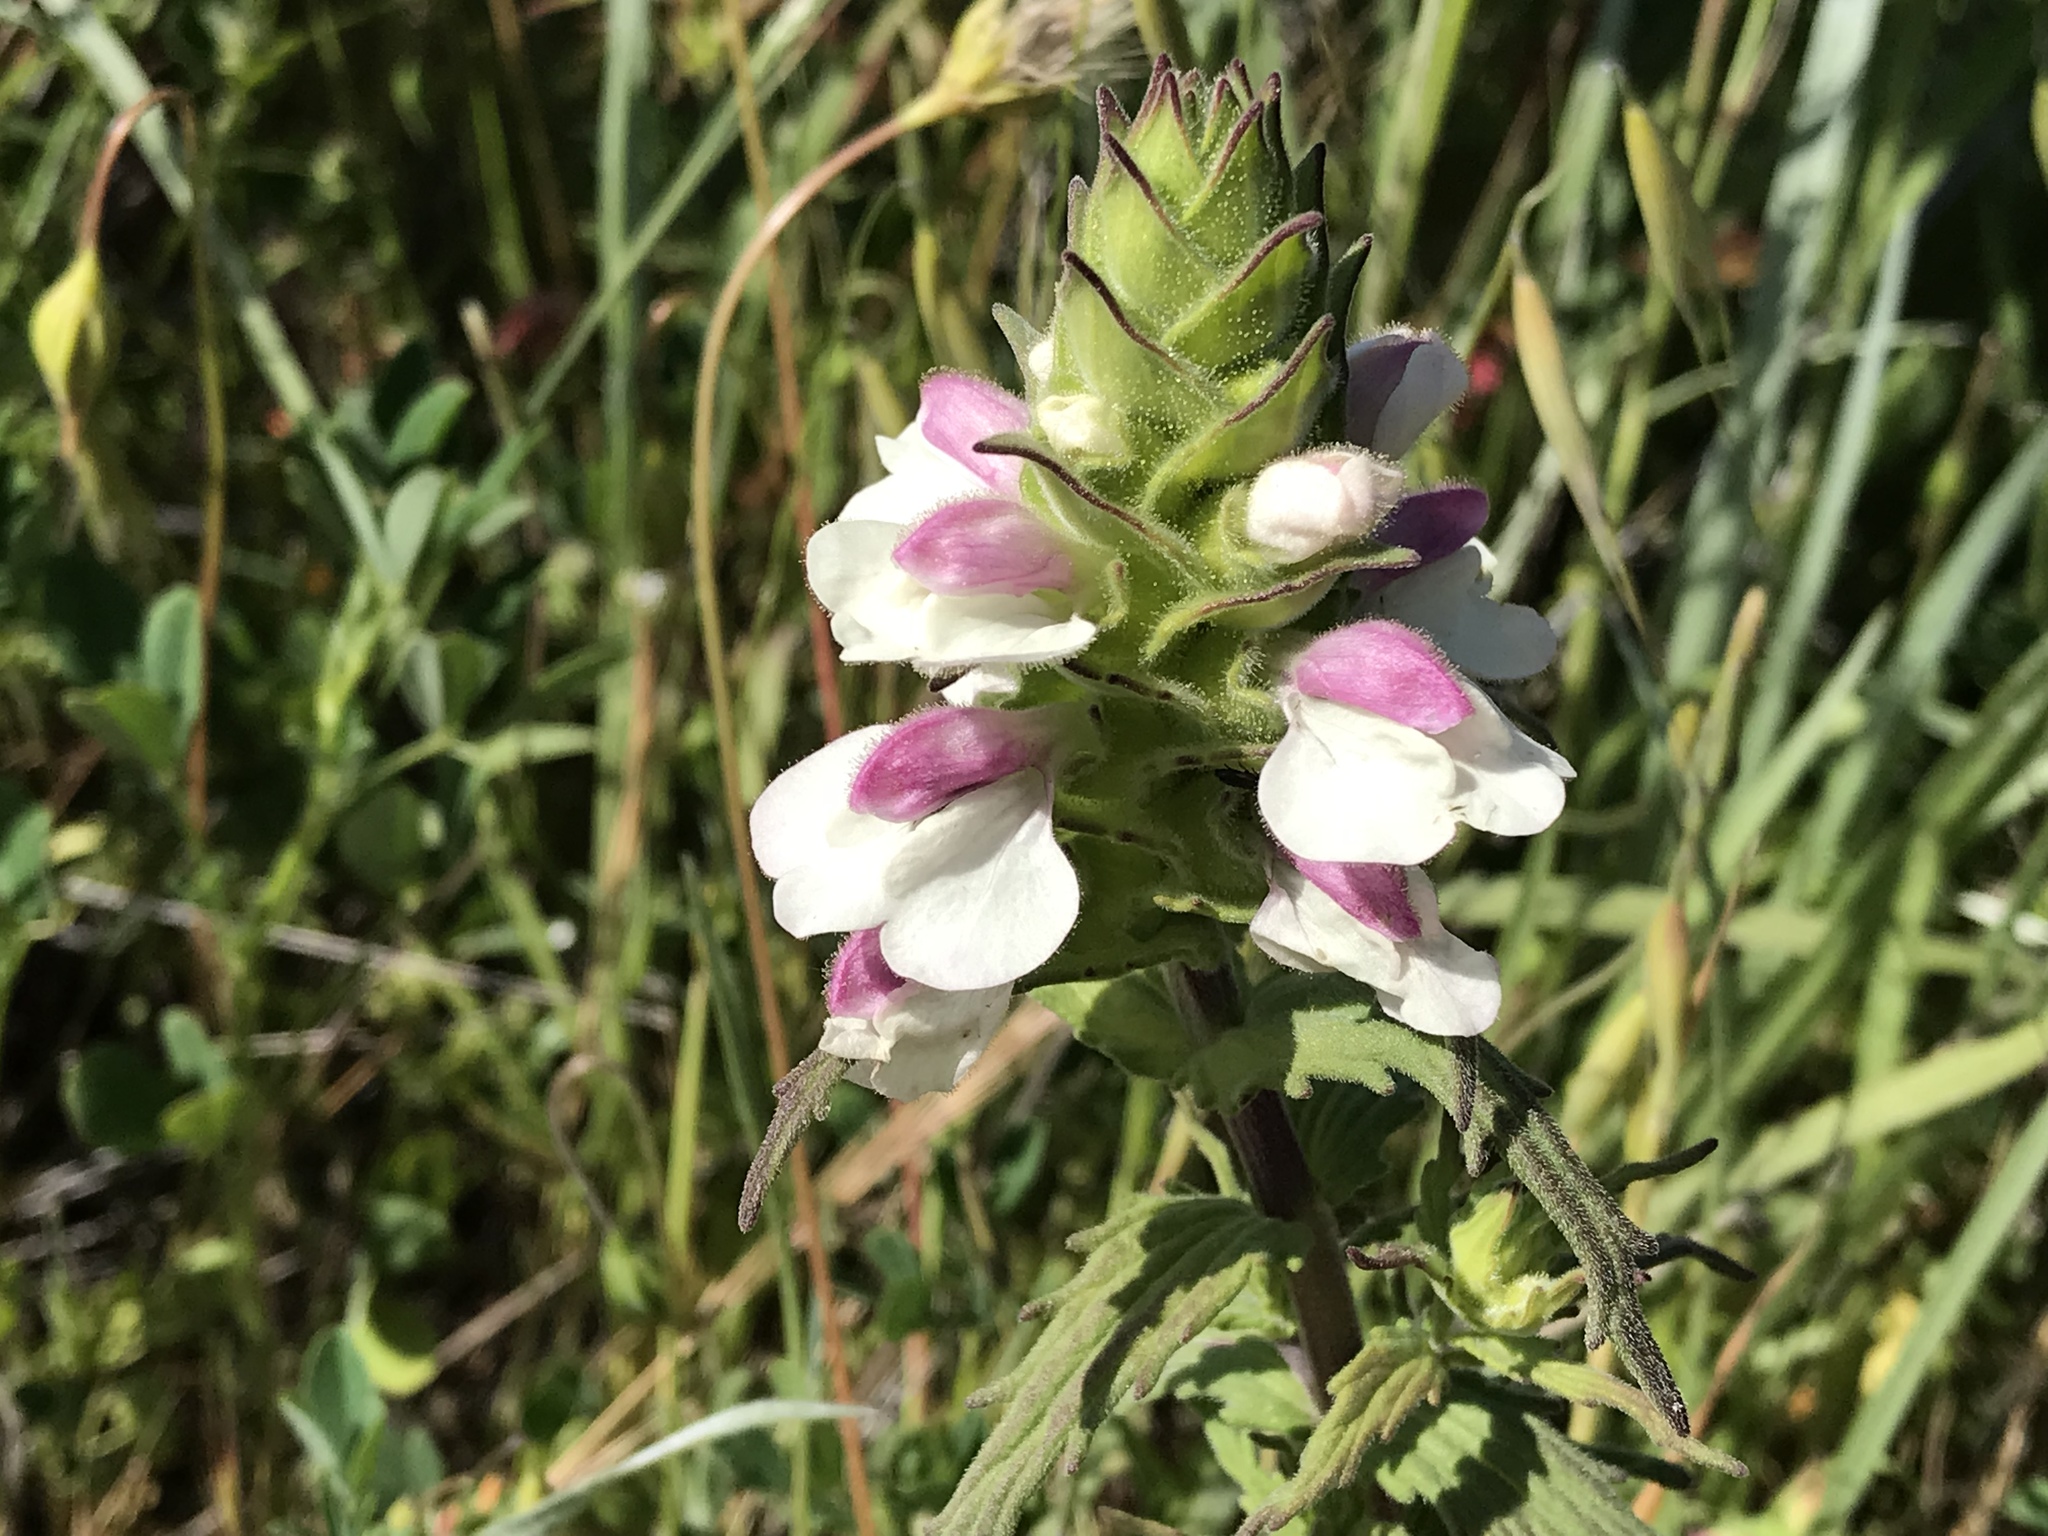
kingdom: Plantae
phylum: Tracheophyta
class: Magnoliopsida
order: Lamiales
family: Orobanchaceae
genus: Bellardia
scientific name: Bellardia trixago
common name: Mediterranean lineseed
